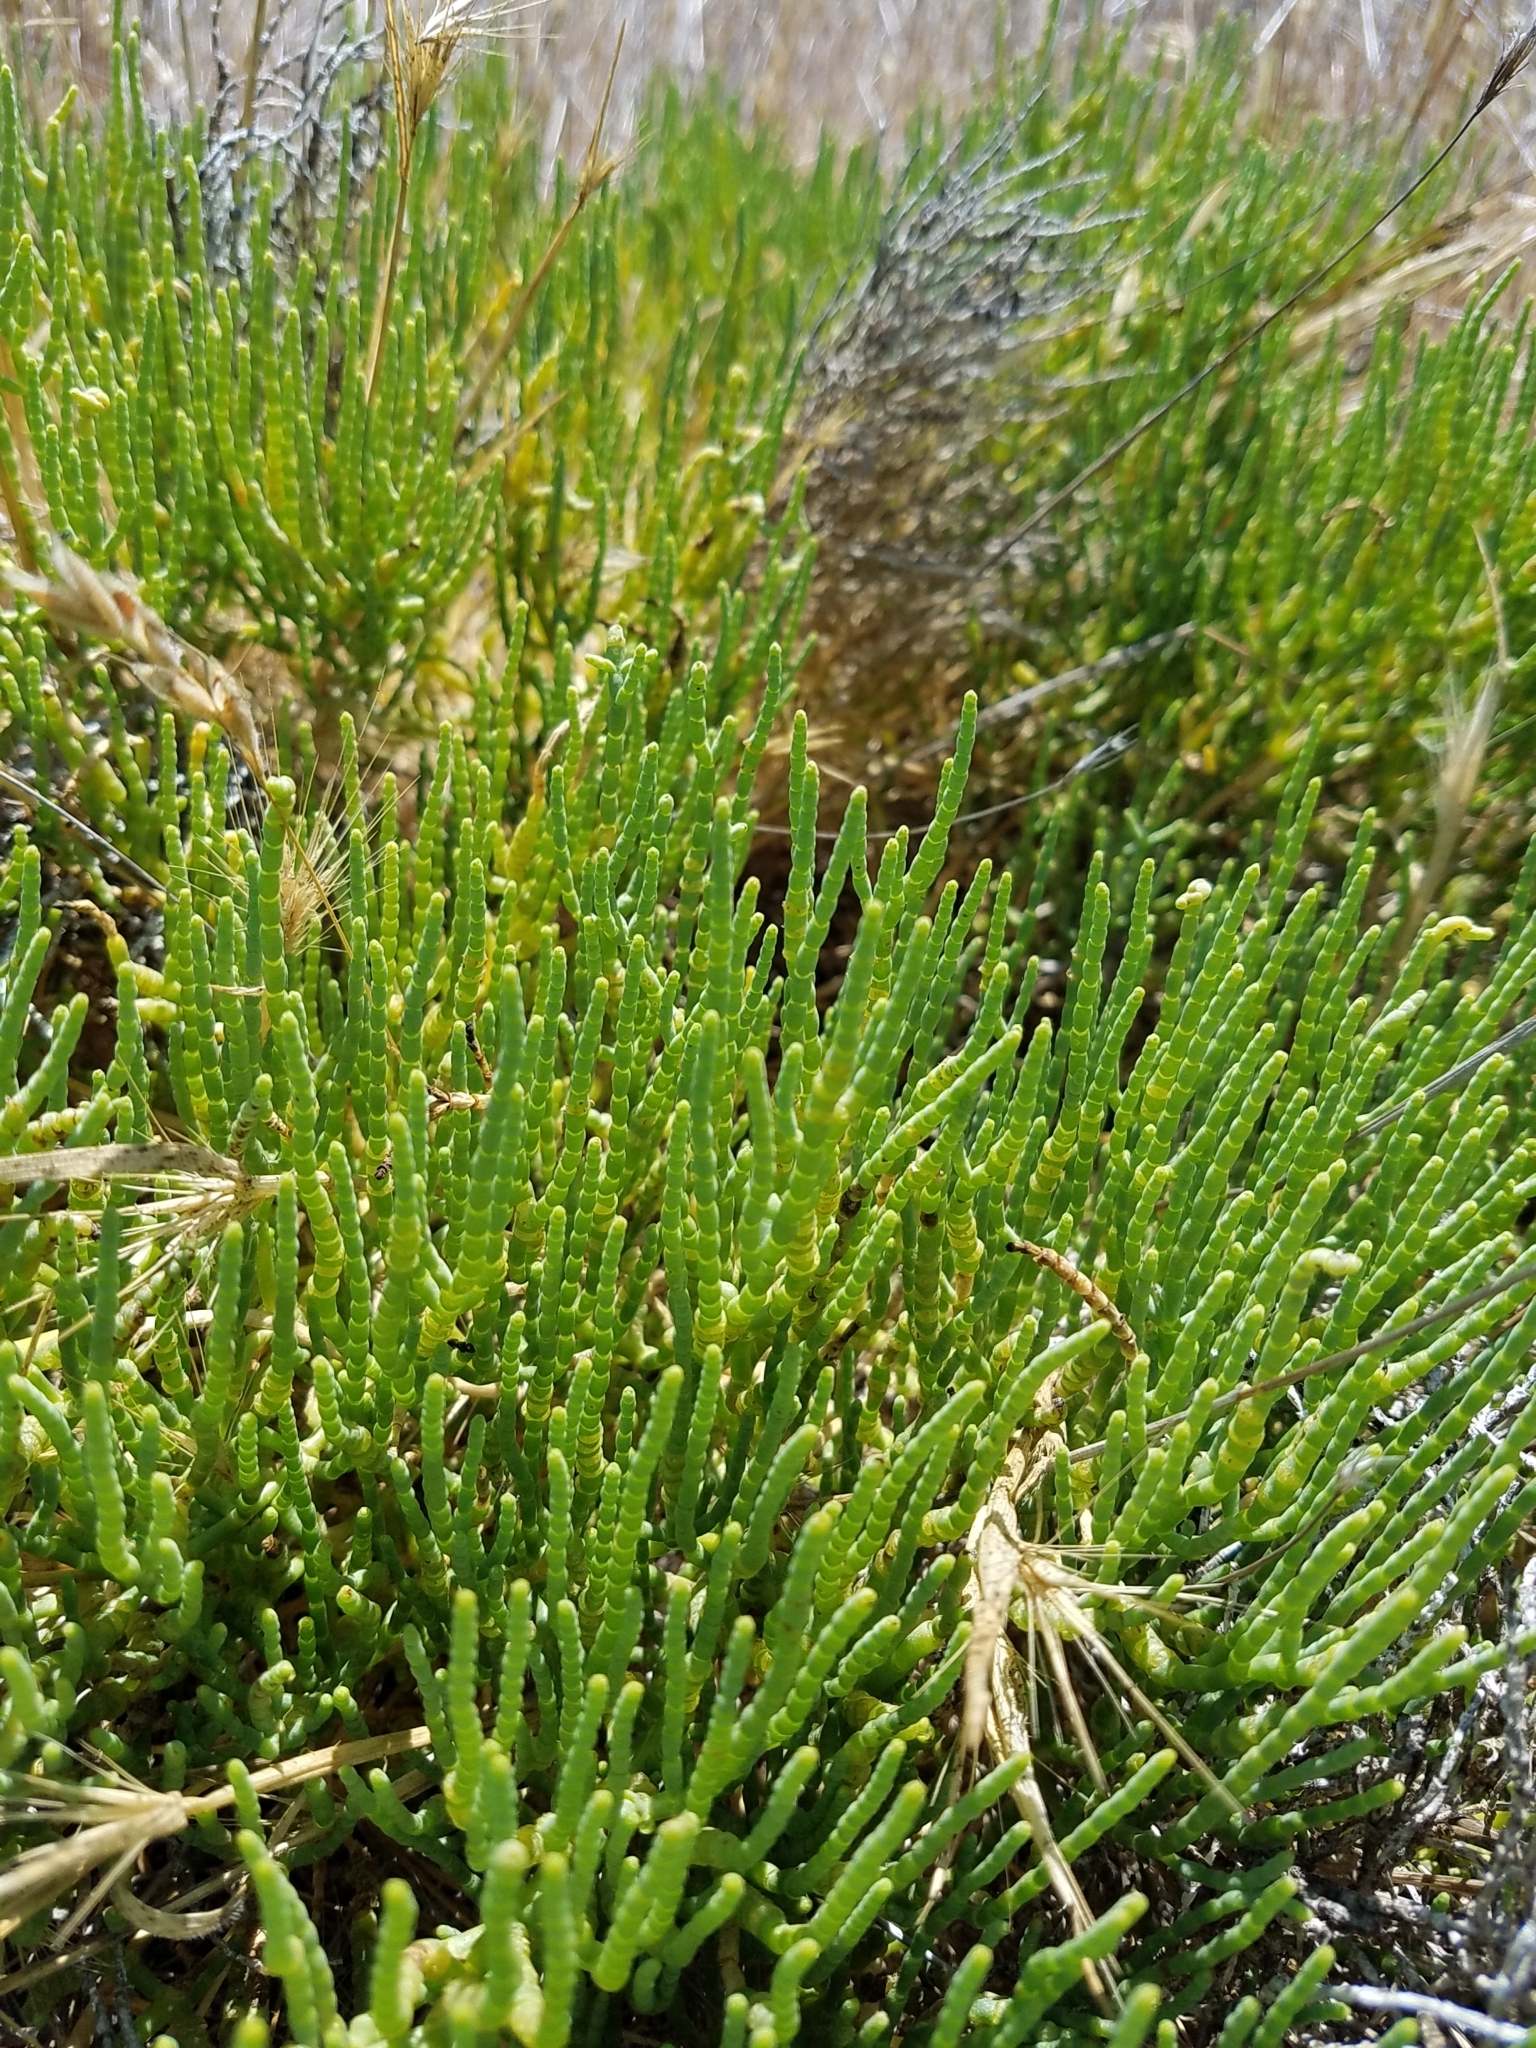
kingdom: Plantae
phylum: Tracheophyta
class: Magnoliopsida
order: Caryophyllales
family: Amaranthaceae
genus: Arthroceras
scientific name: Arthroceras subterminale
